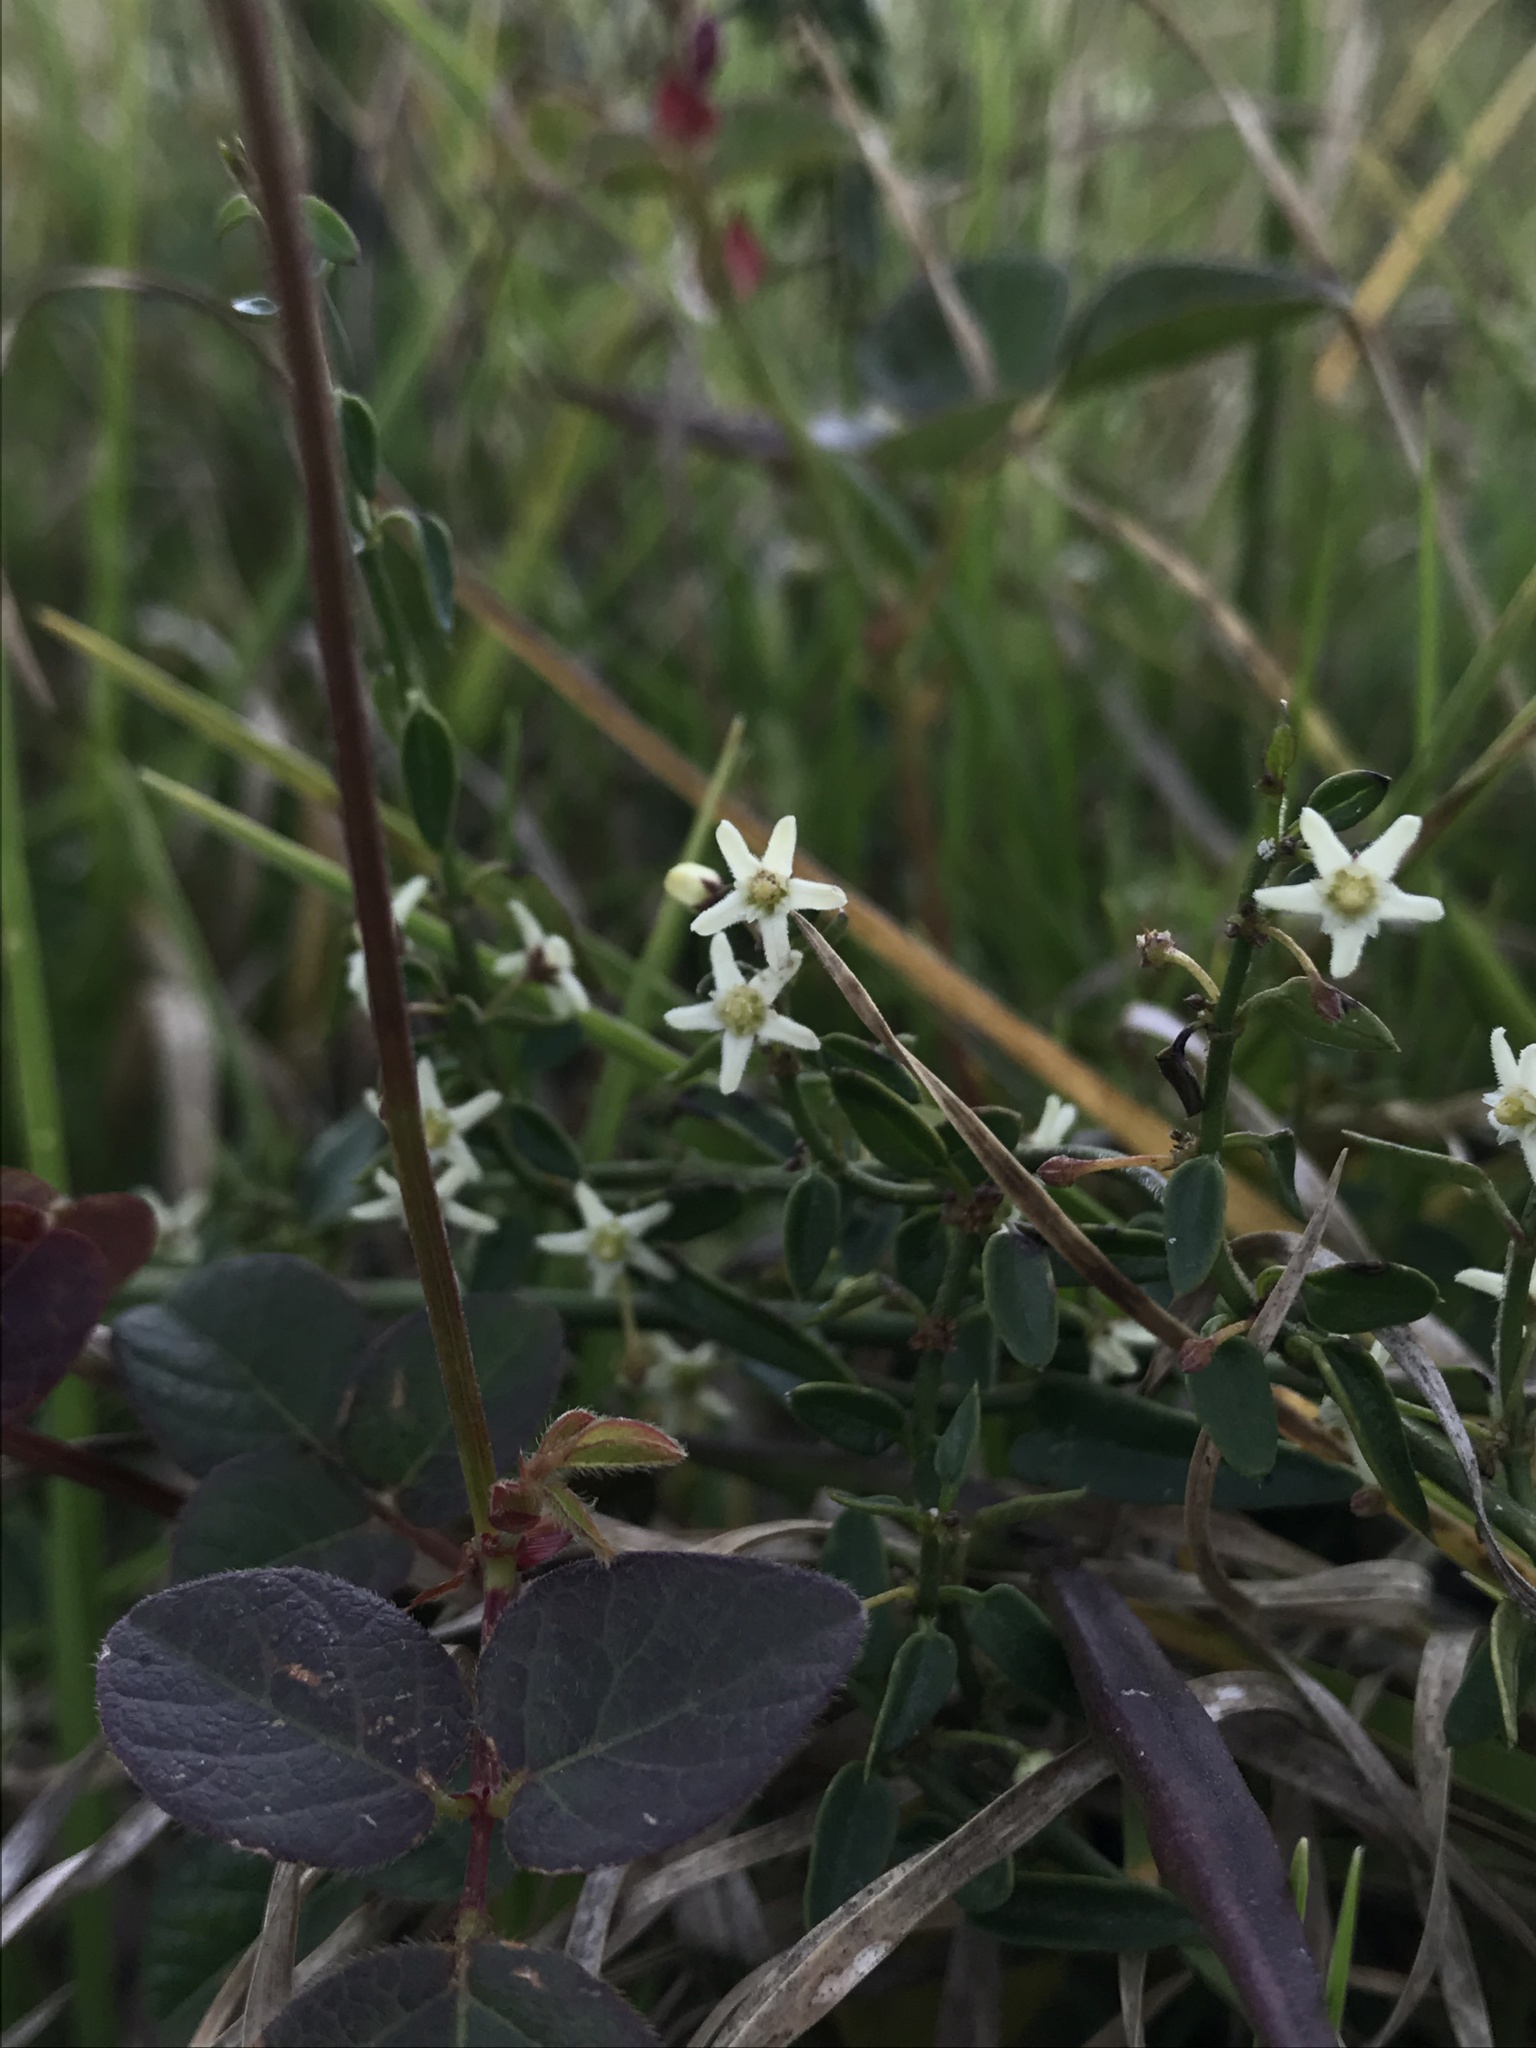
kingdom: Plantae
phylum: Tracheophyta
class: Magnoliopsida
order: Gentianales
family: Apocynaceae
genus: Scyphostelma
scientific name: Scyphostelma tenellum
